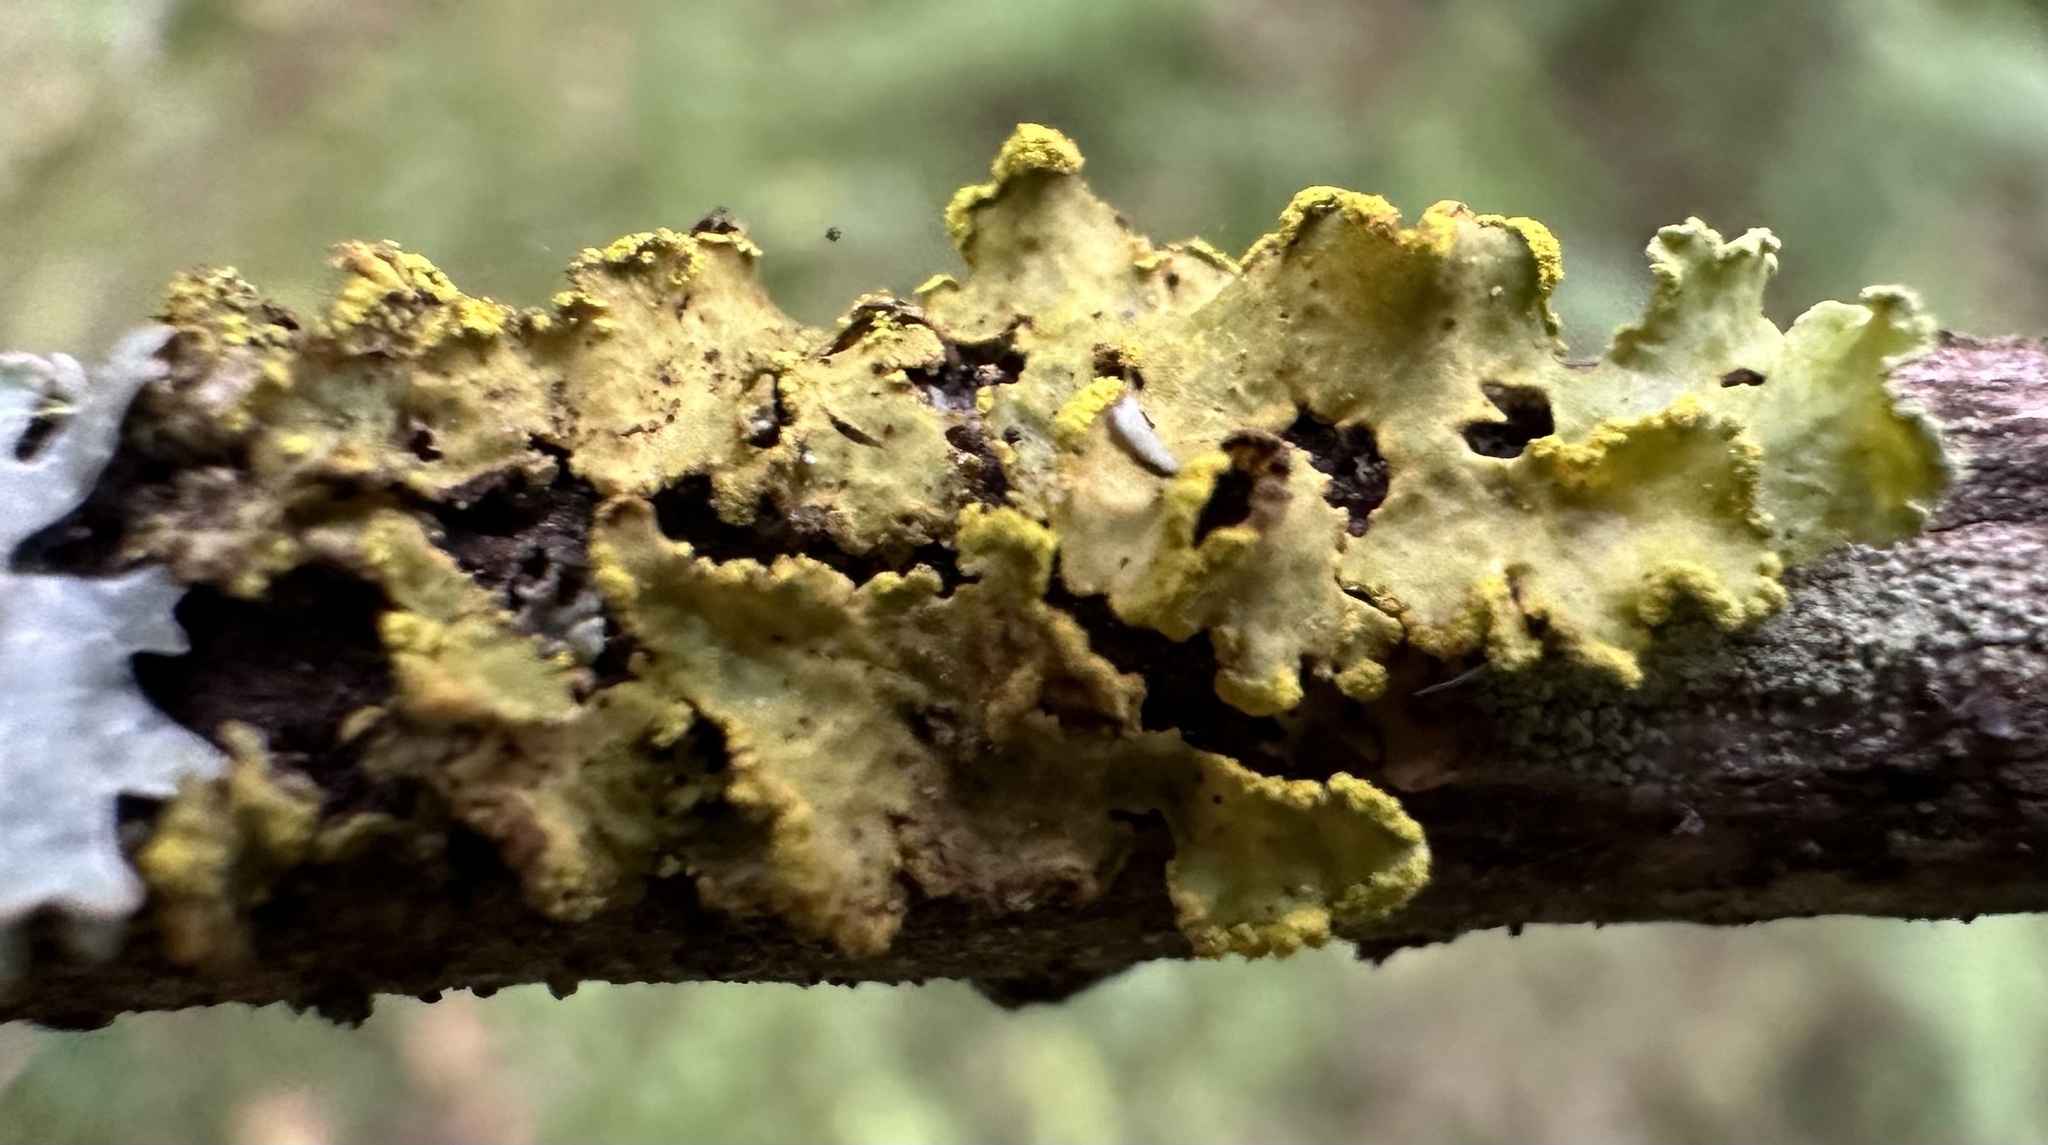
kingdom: Fungi
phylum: Ascomycota
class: Lecanoromycetes
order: Lecanorales
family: Parmeliaceae
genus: Vulpicida
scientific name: Vulpicida pinastri
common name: Powdered sunshine lichen
